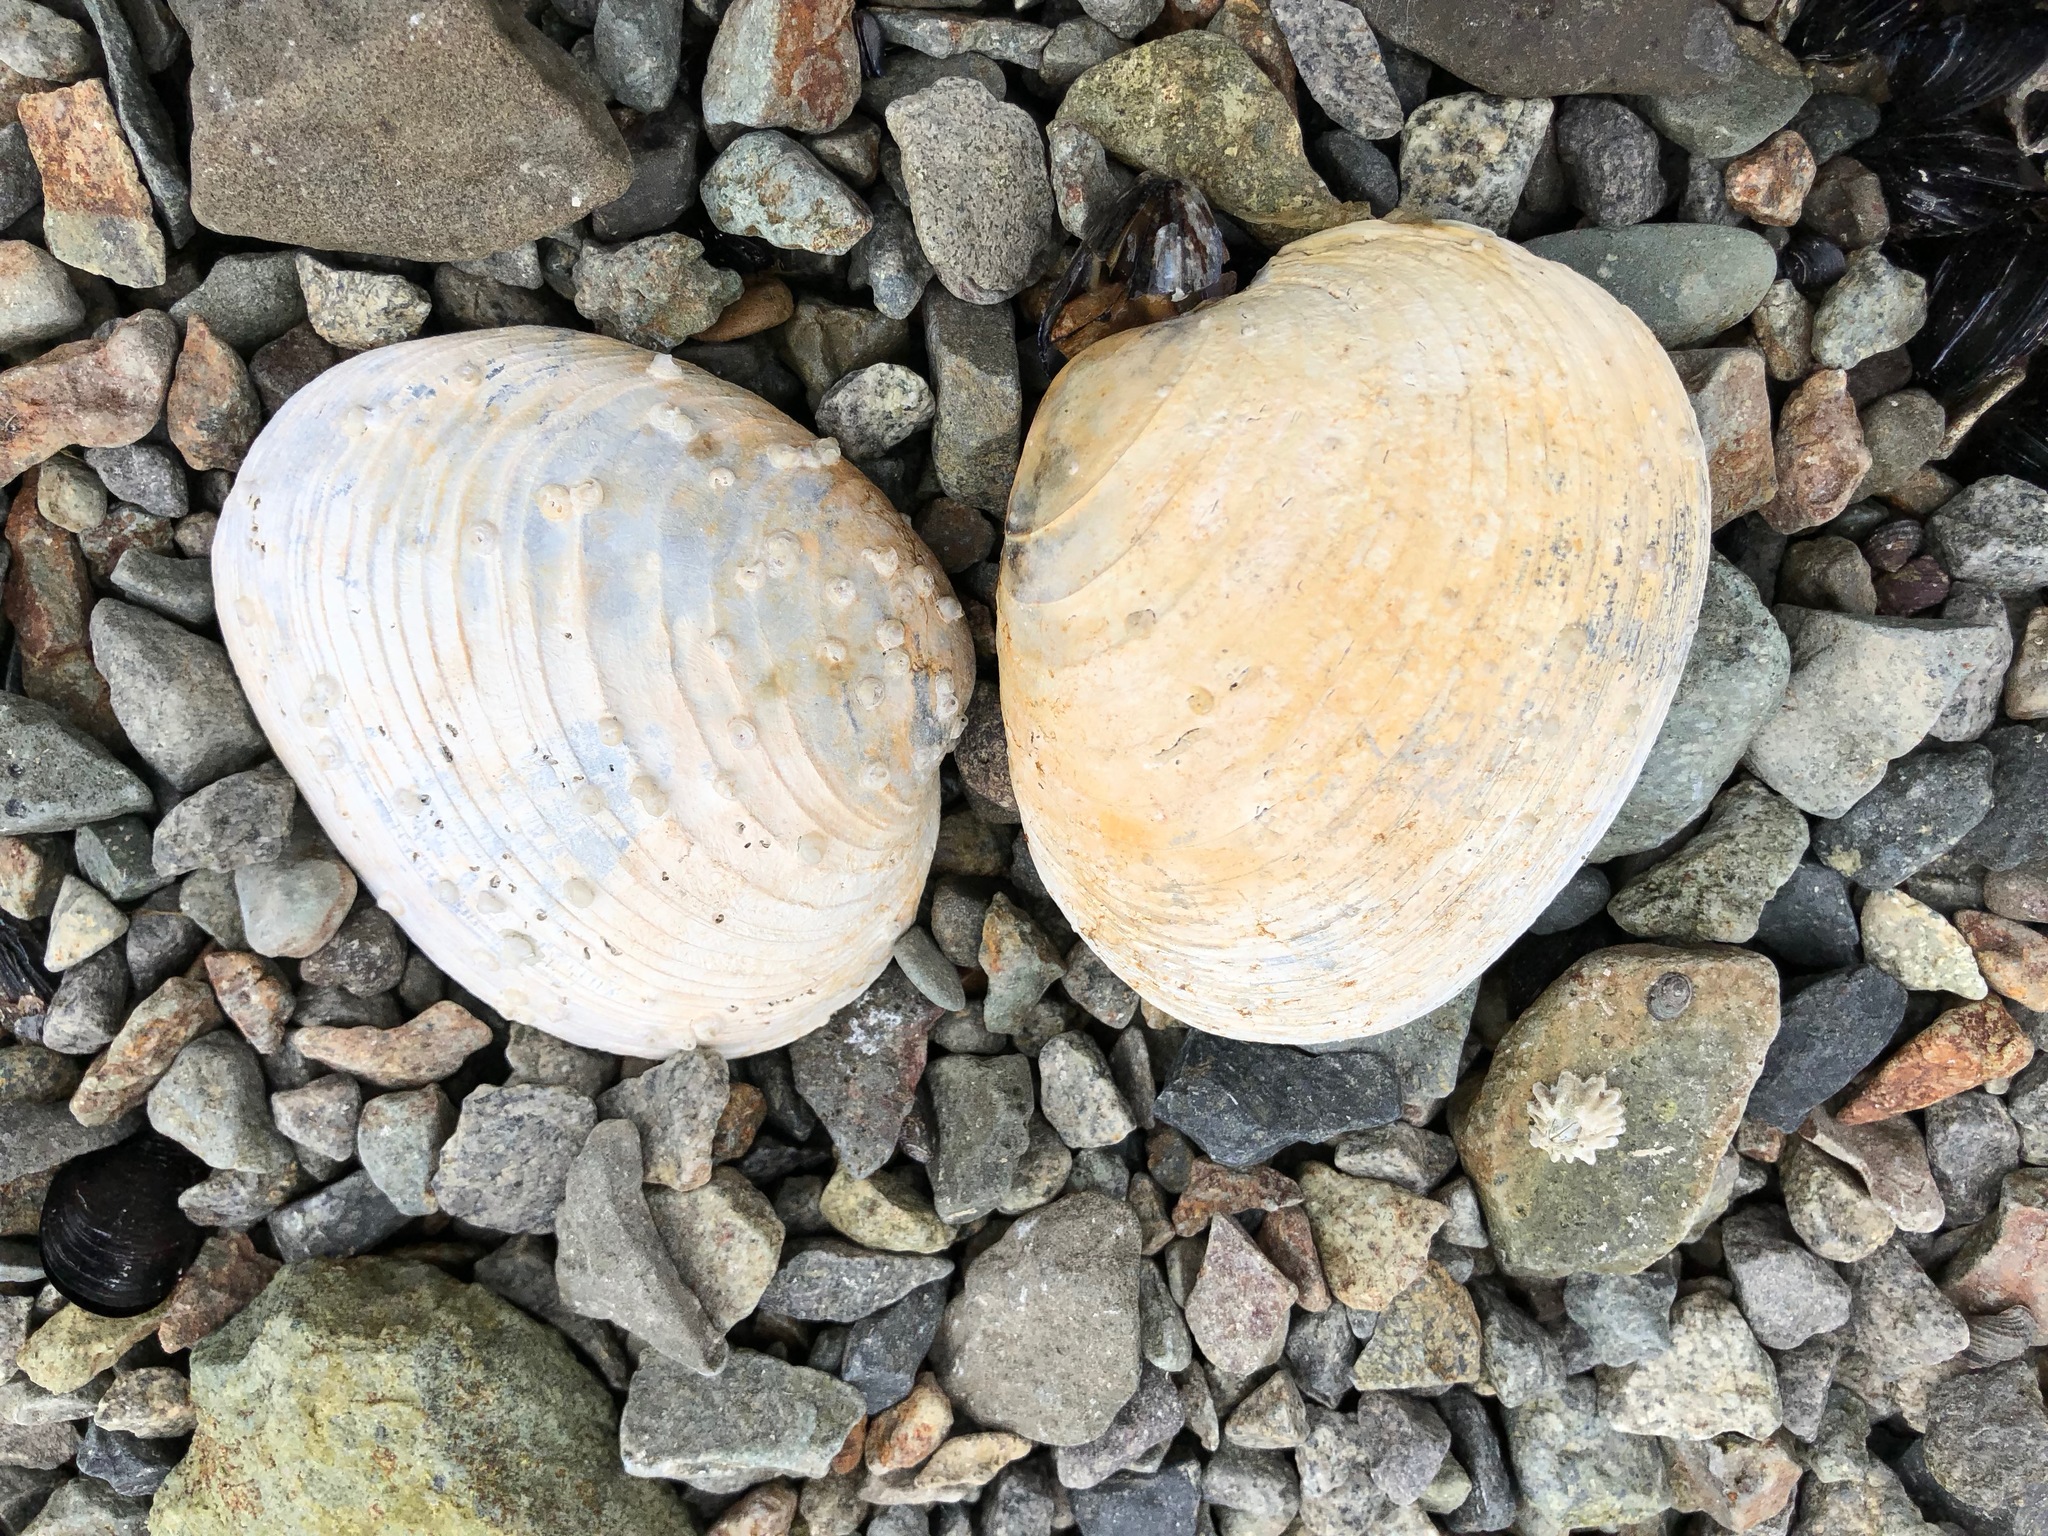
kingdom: Animalia
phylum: Mollusca
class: Bivalvia
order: Venerida
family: Veneridae
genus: Saxidomus
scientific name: Saxidomus gigantea
